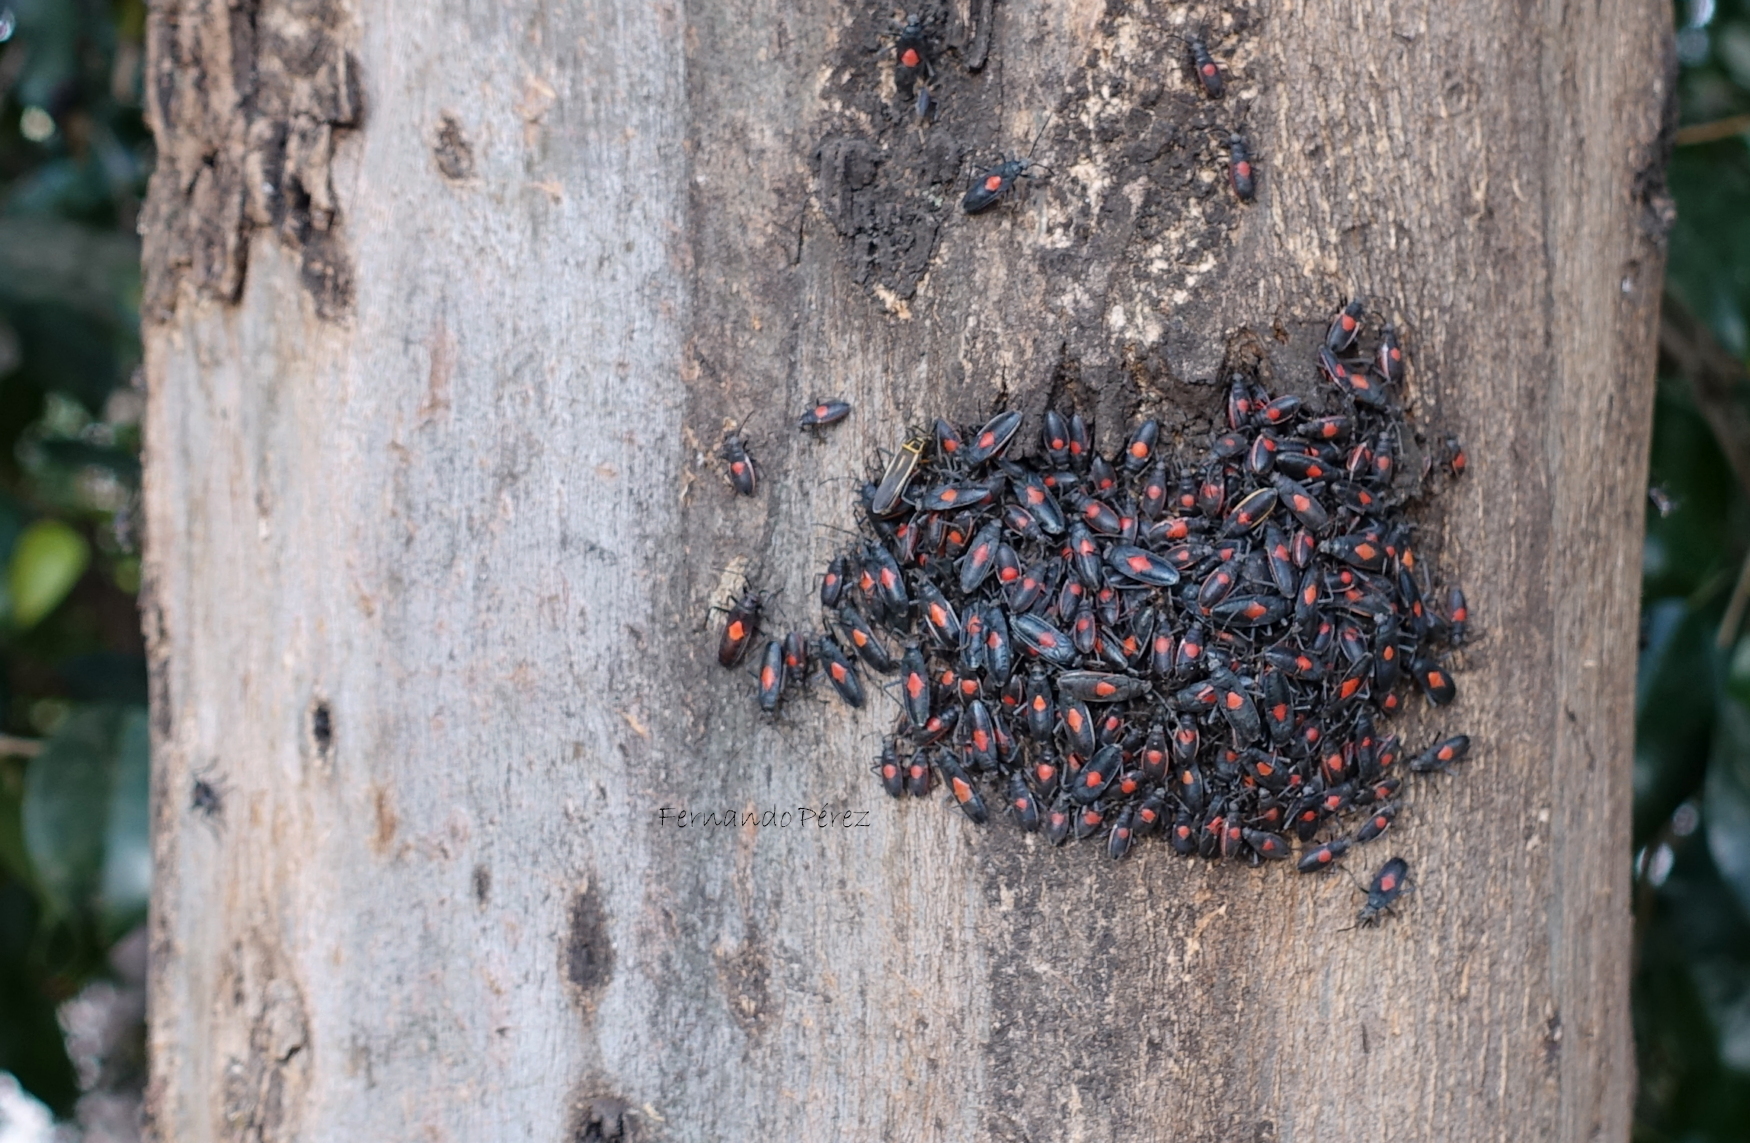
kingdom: Animalia
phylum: Arthropoda
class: Insecta
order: Hemiptera
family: Largidae
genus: Stenomacra
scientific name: Stenomacra marginella
